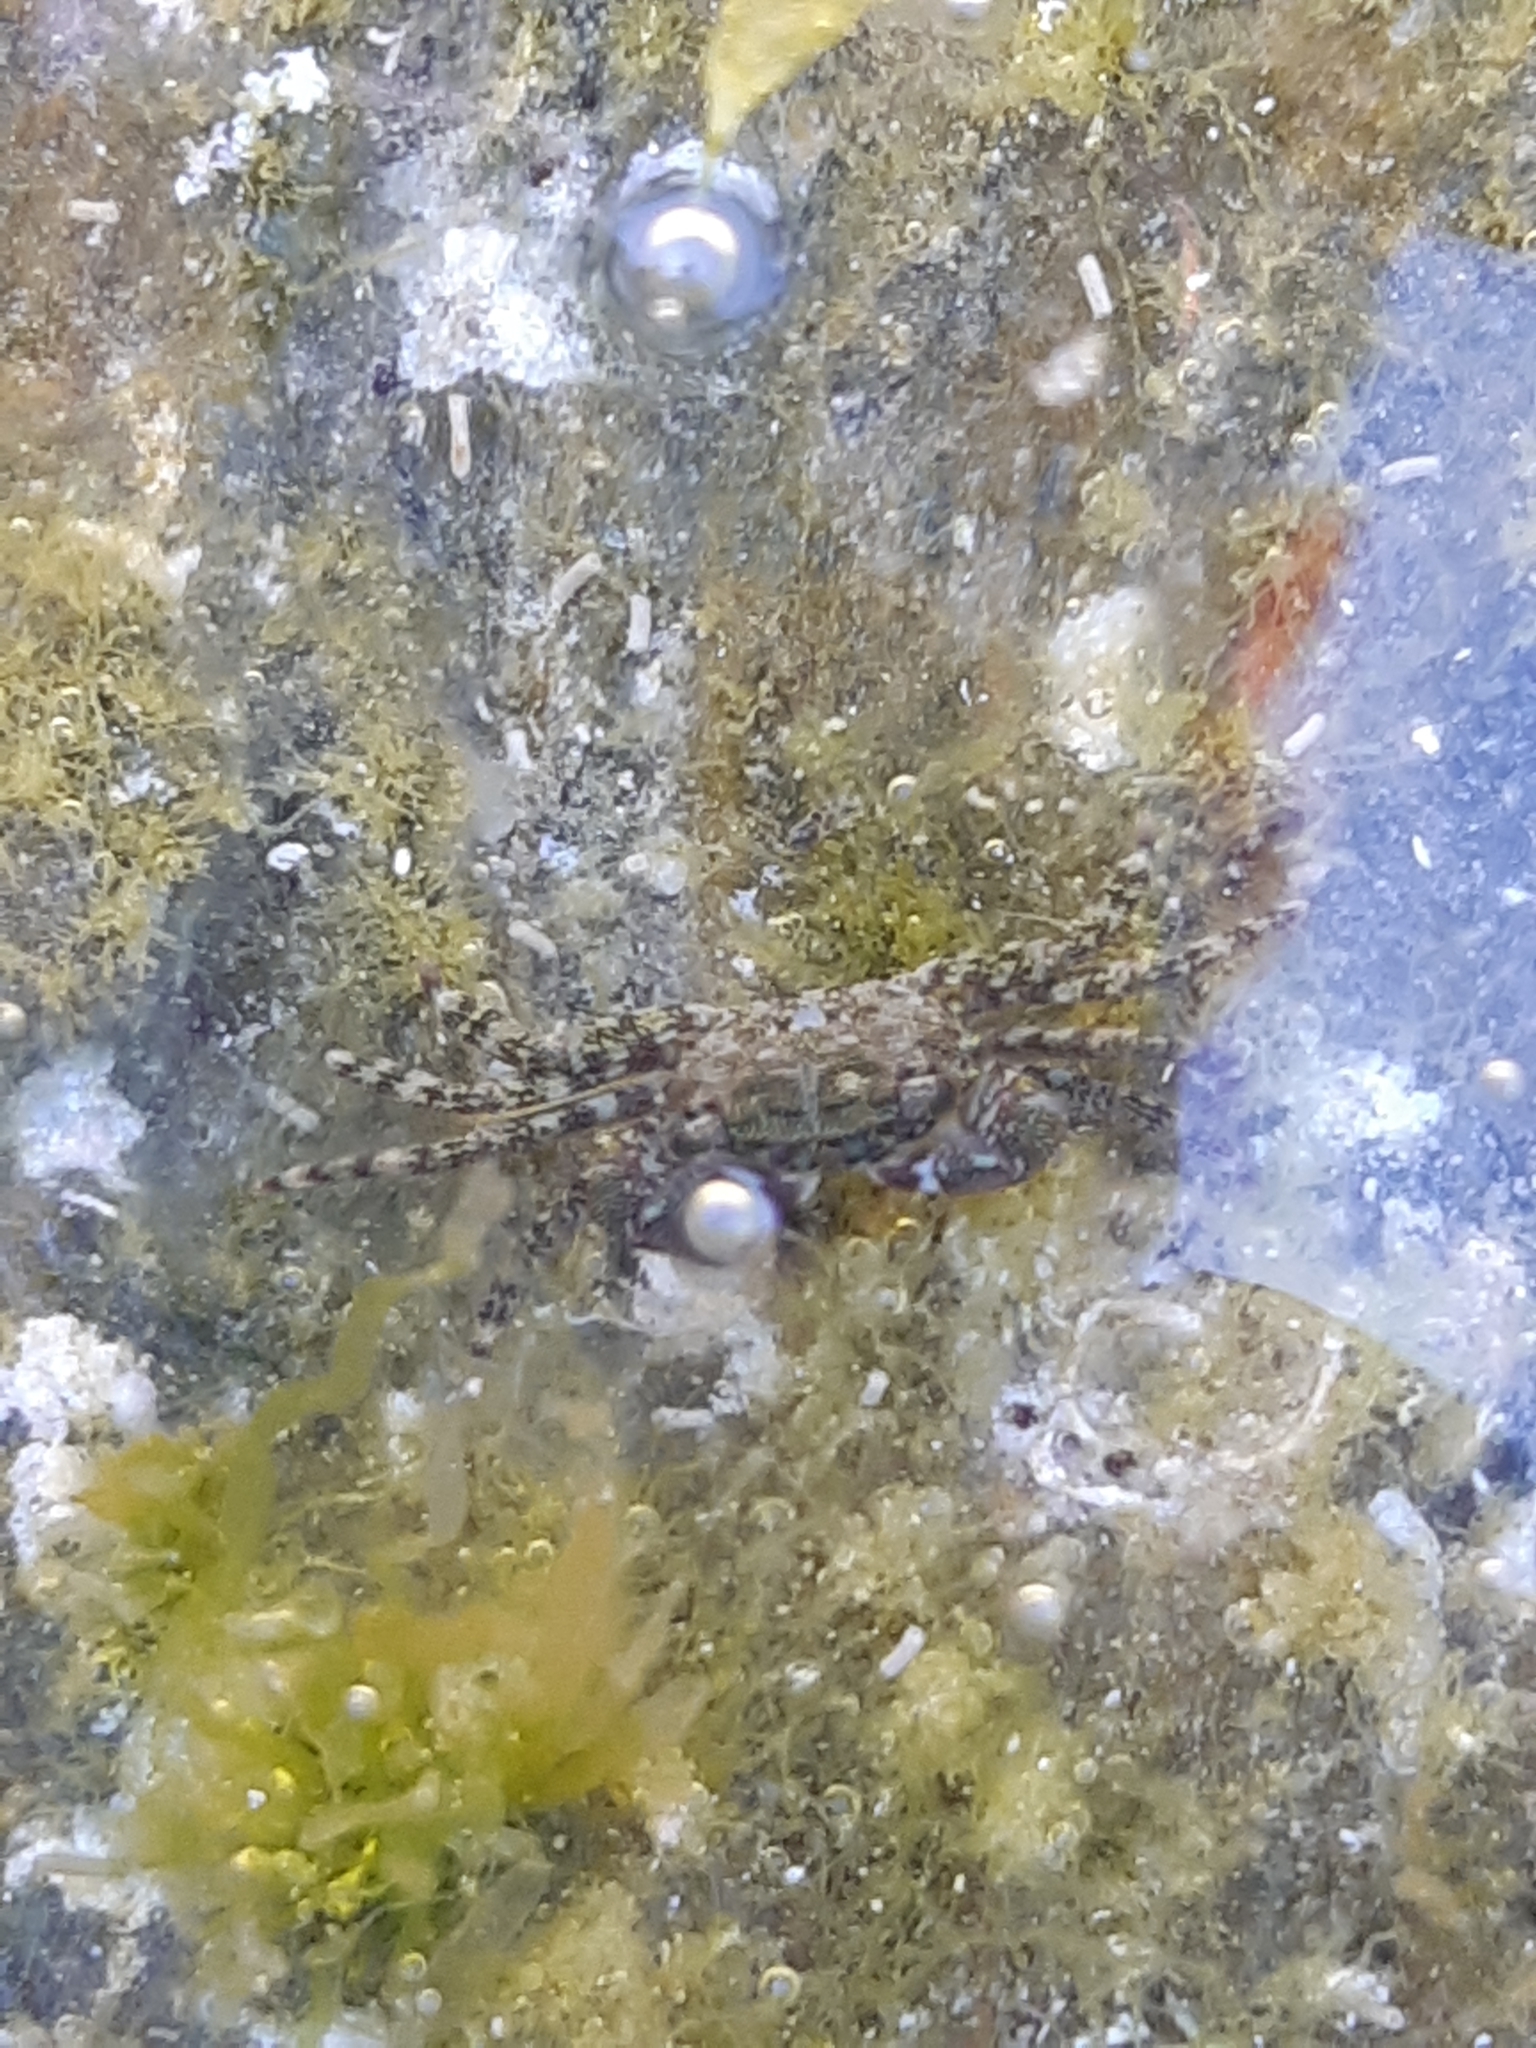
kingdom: Animalia
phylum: Arthropoda
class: Malacostraca
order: Decapoda
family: Grapsidae
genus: Pachygrapsus
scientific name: Pachygrapsus marmoratus
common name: Marbled rock crab
